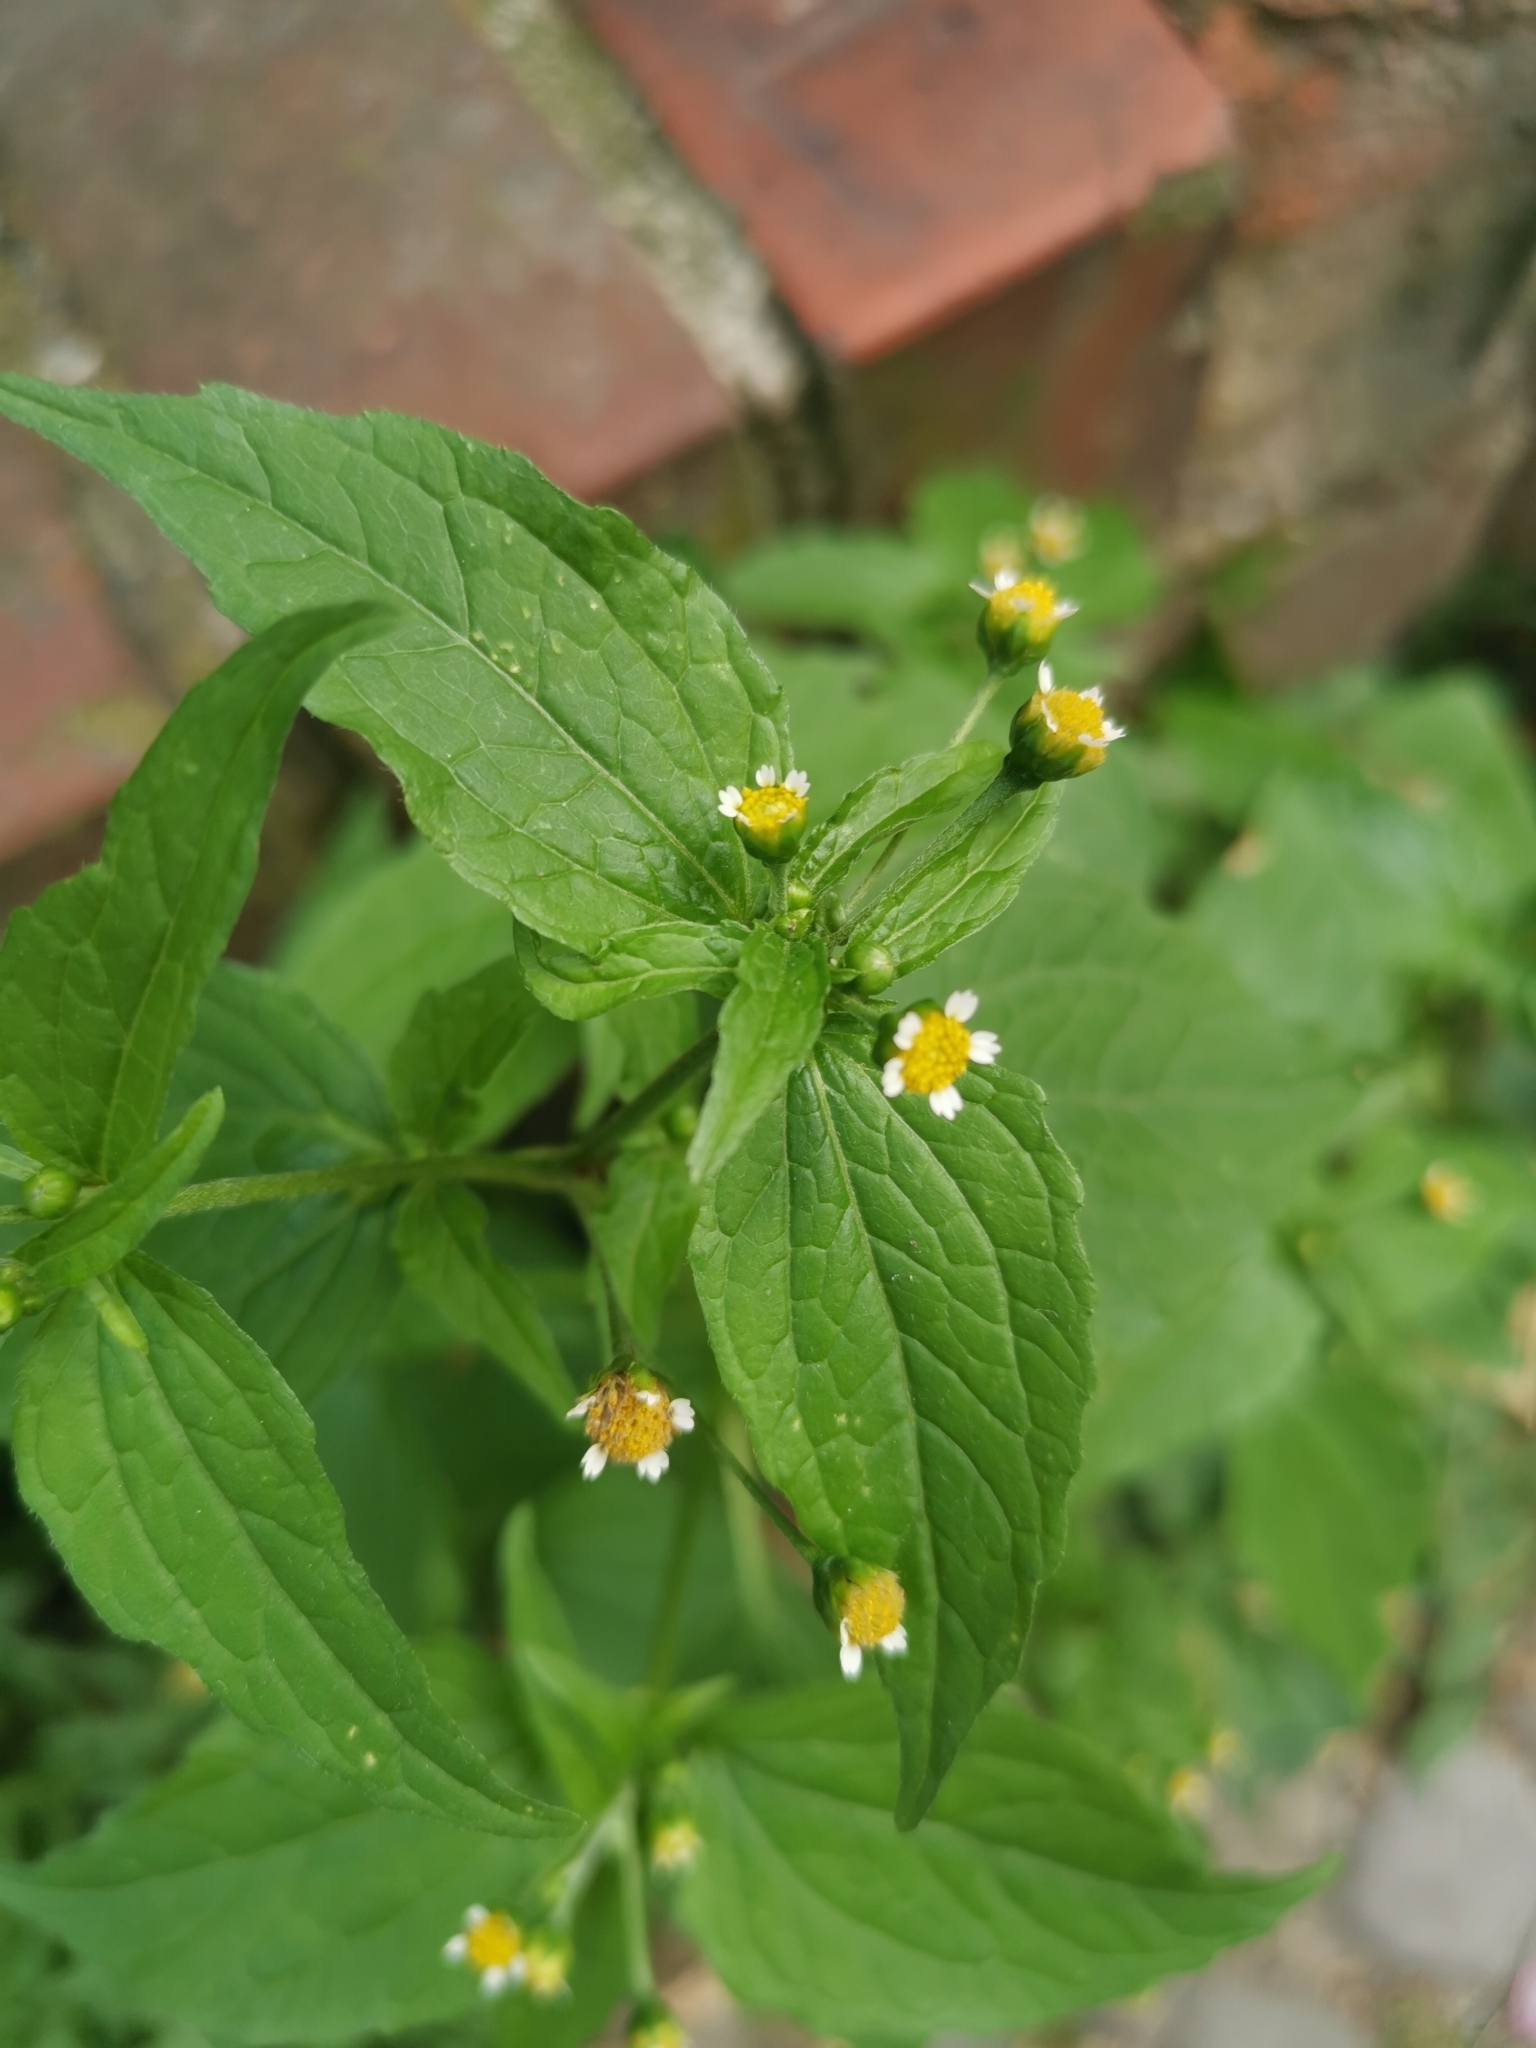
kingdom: Plantae
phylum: Tracheophyta
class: Magnoliopsida
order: Asterales
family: Asteraceae
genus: Galinsoga
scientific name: Galinsoga parviflora
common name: Gallant soldier
